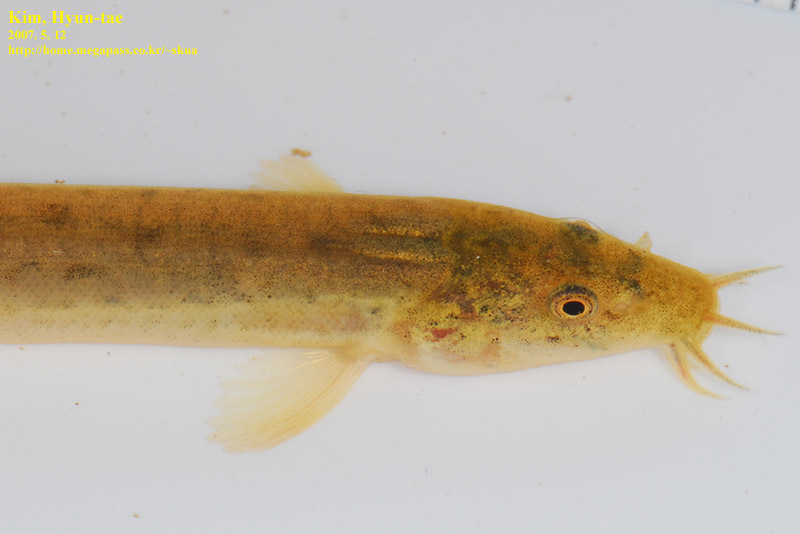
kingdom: Animalia
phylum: Chordata
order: Cypriniformes
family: Cobitidae
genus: Misgurnus
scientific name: Misgurnus anguillicaudatus
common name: Oriental weatherfish
